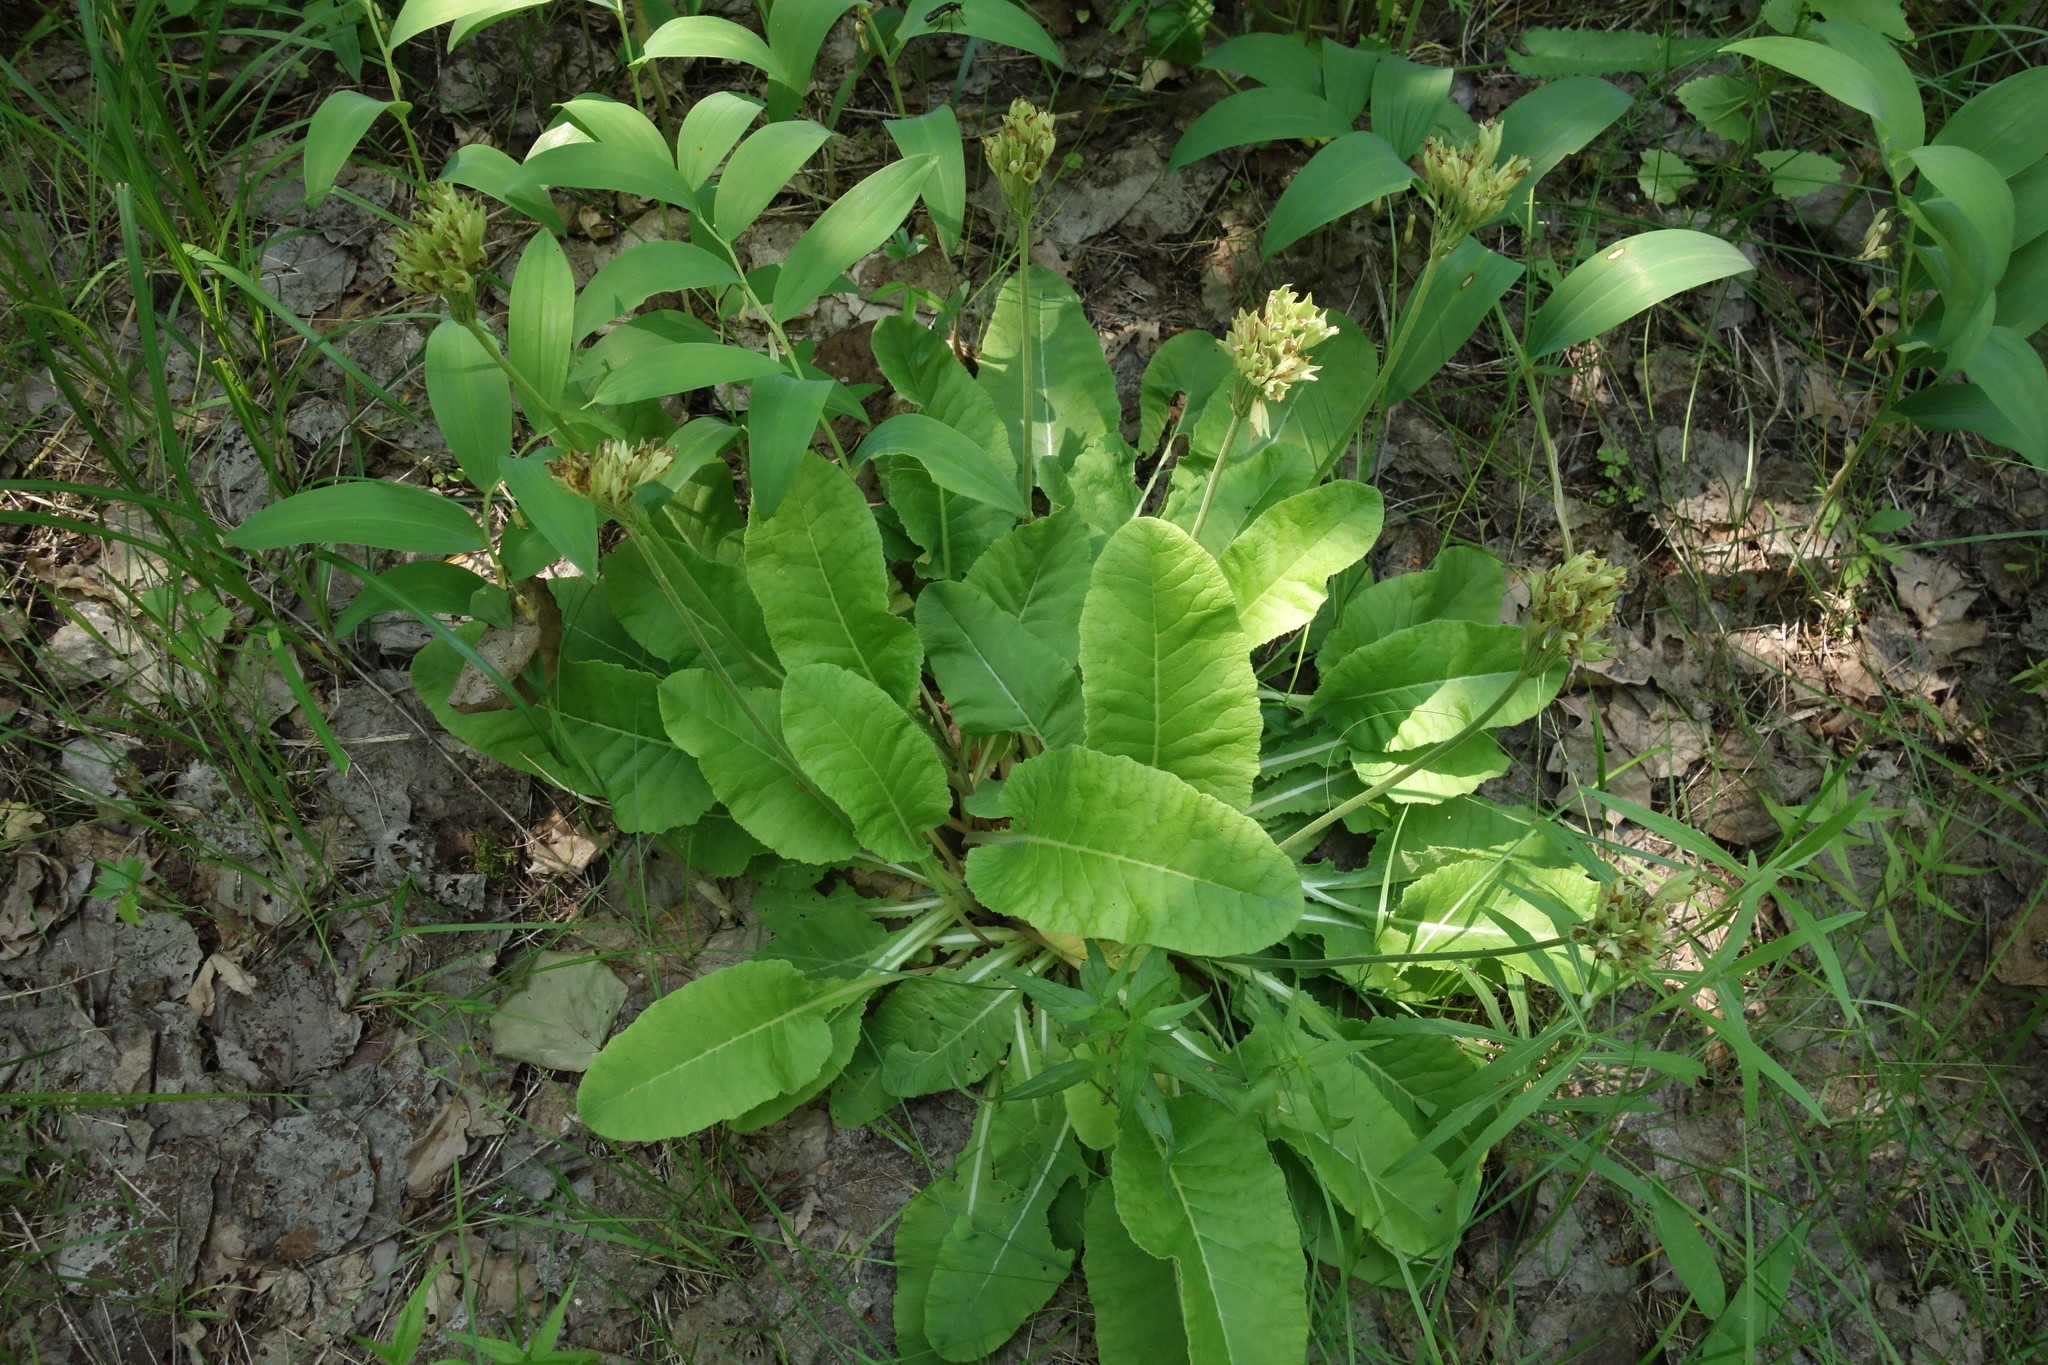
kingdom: Plantae
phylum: Tracheophyta
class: Magnoliopsida
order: Ericales
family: Primulaceae
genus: Primula
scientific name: Primula veris
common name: Cowslip
